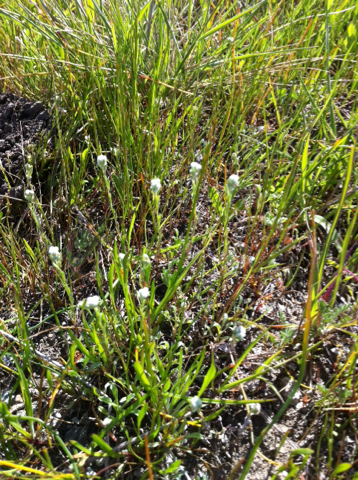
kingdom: Plantae
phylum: Tracheophyta
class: Magnoliopsida
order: Asterales
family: Asteraceae
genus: Bombycilaena
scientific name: Bombycilaena californica
